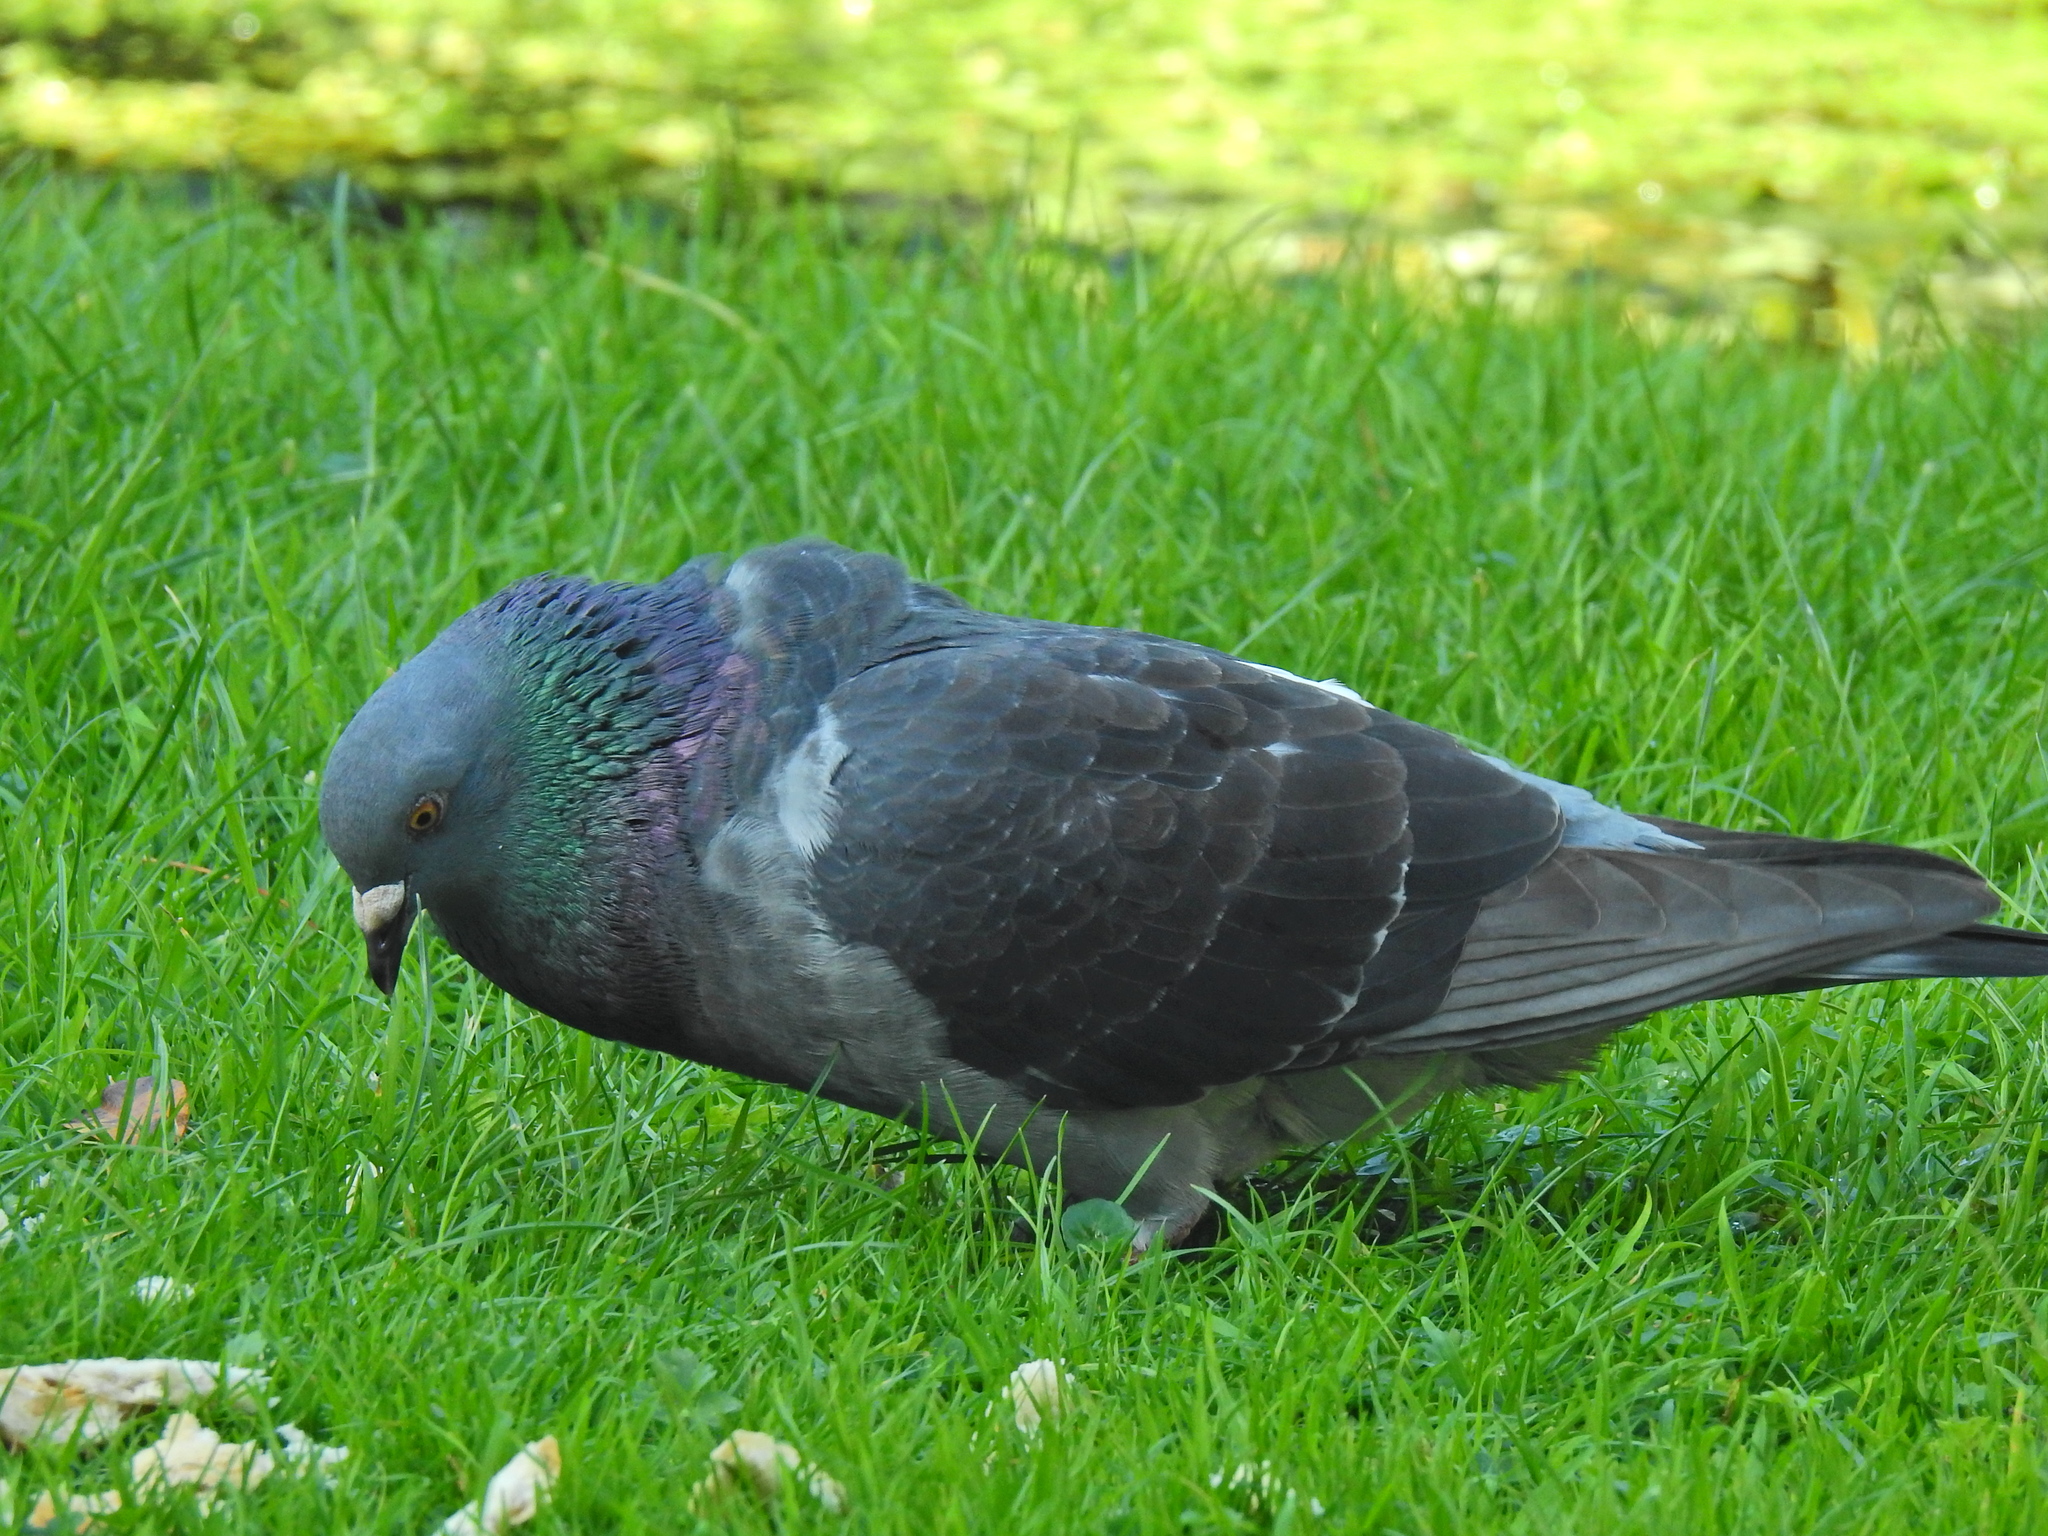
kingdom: Animalia
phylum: Chordata
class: Aves
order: Columbiformes
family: Columbidae
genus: Columba
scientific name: Columba livia
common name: Rock pigeon
